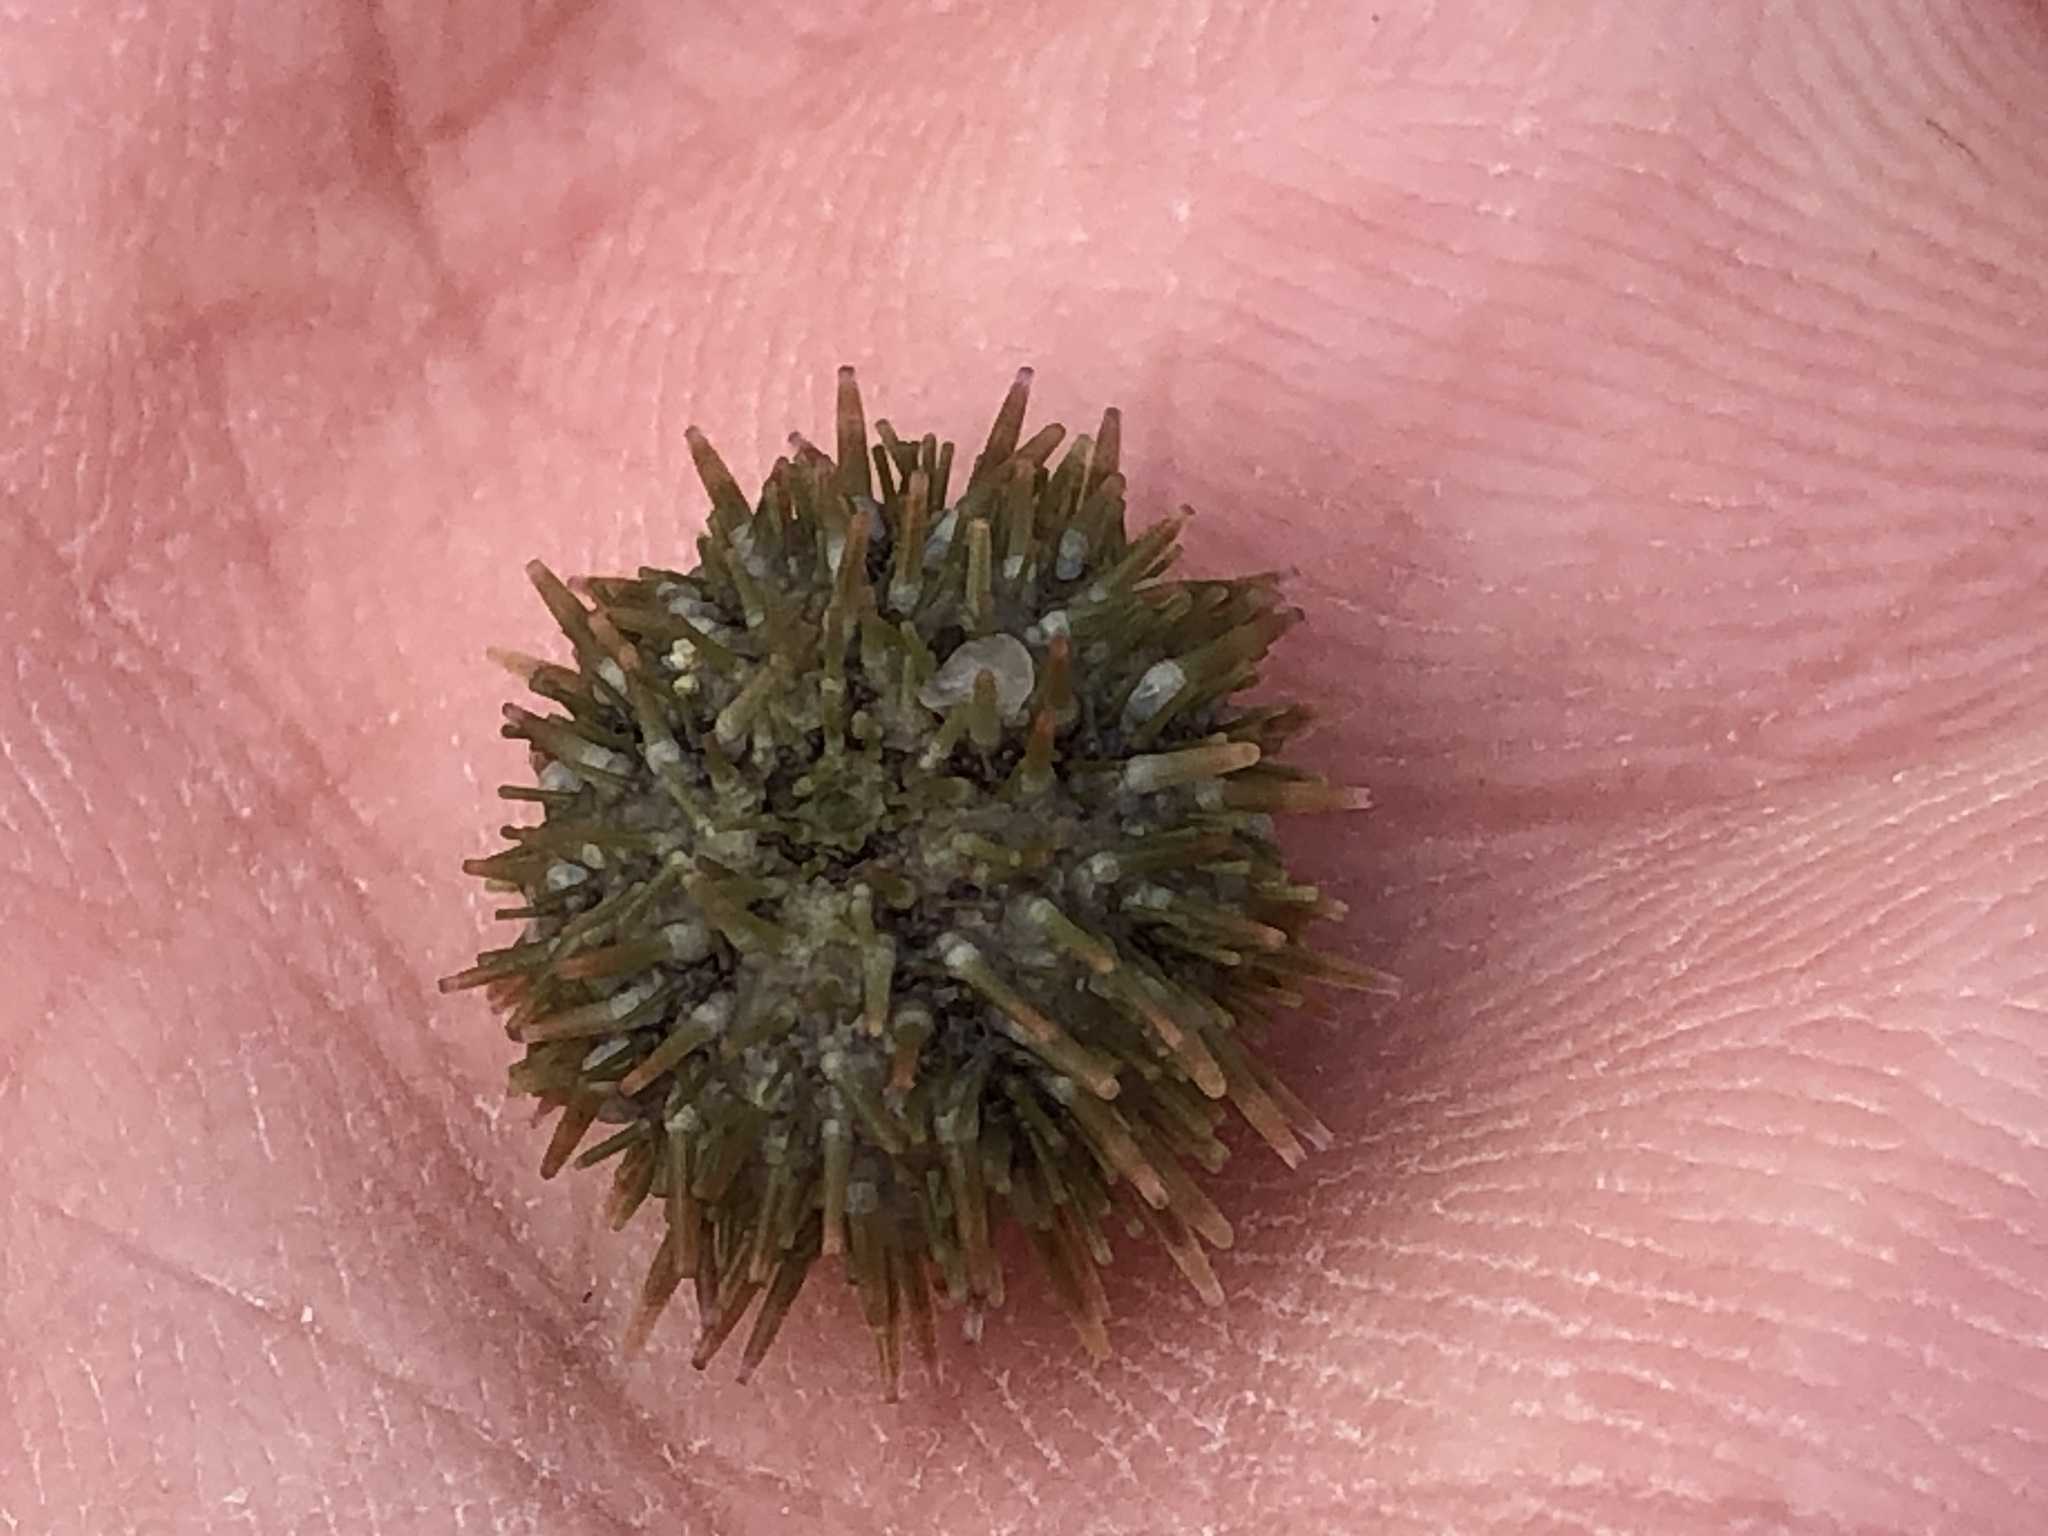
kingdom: Animalia
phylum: Echinodermata
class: Echinoidea
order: Camarodonta
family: Strongylocentrotidae
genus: Strongylocentrotus
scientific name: Strongylocentrotus purpuratus
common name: Purple sea urchin
